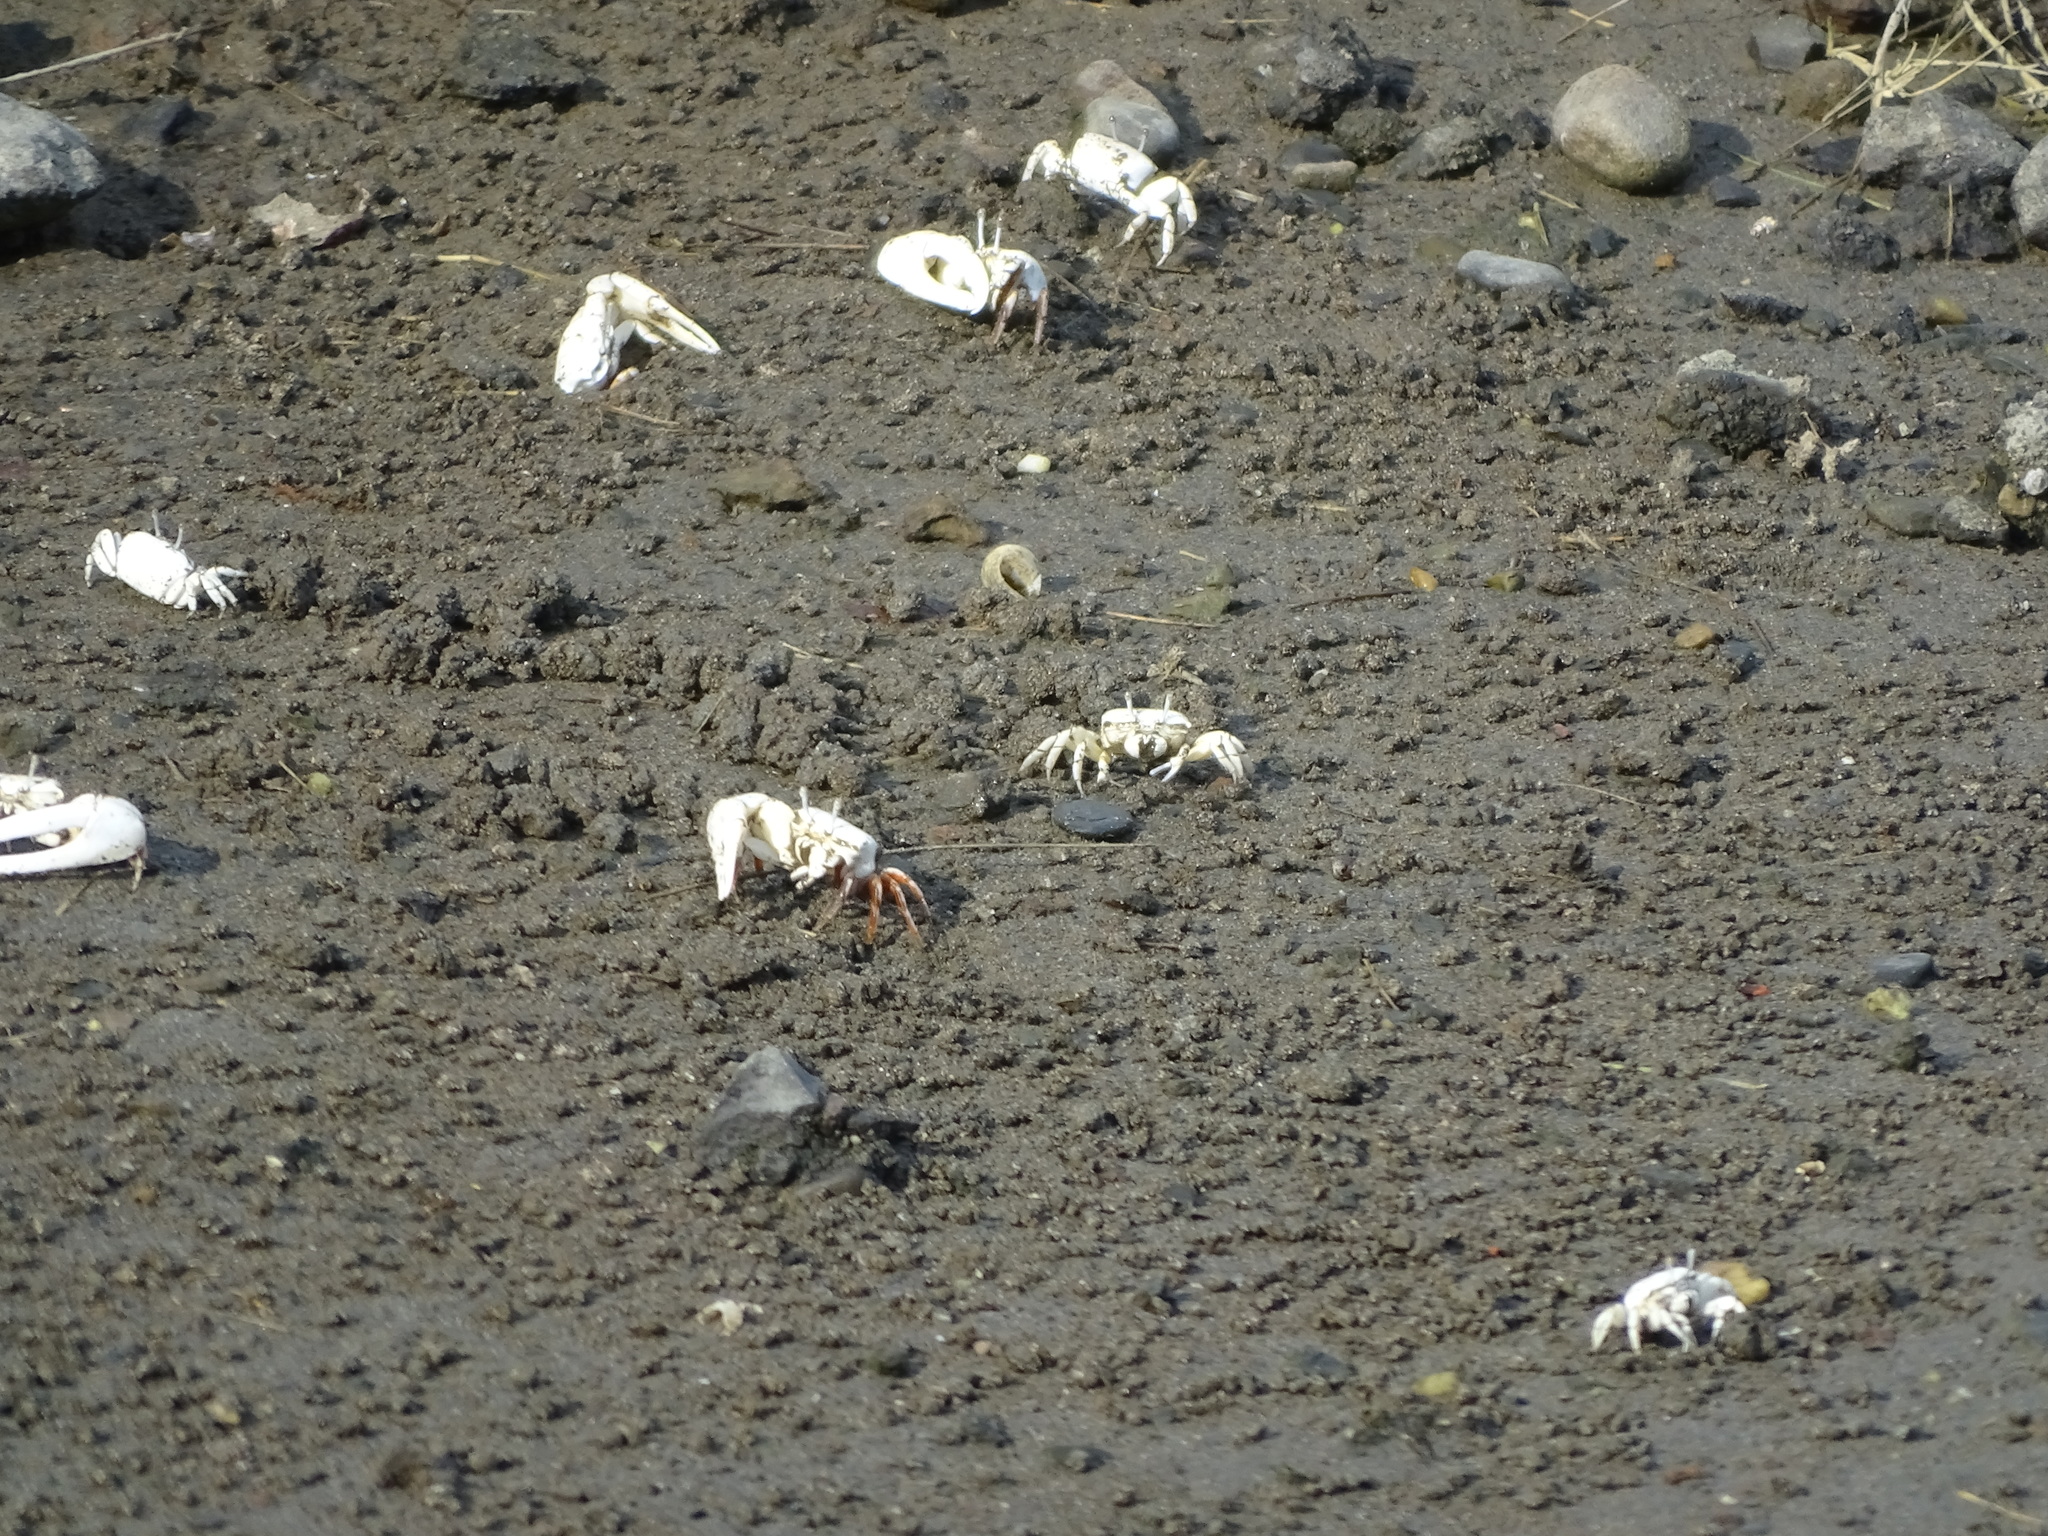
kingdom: Animalia
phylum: Arthropoda
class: Malacostraca
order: Decapoda
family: Ocypodidae
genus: Austruca
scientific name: Austruca lactea
